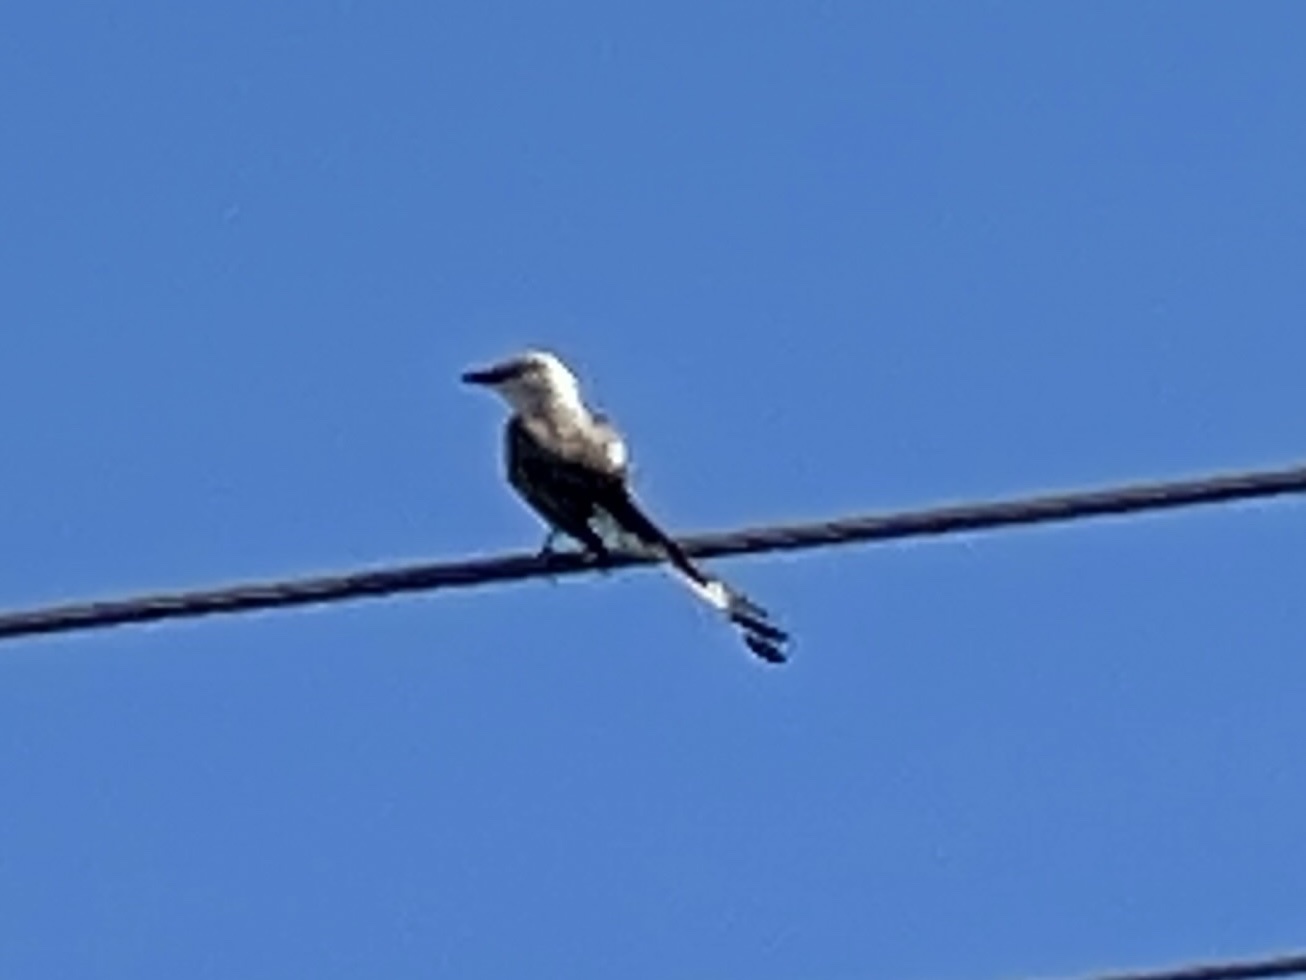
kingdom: Animalia
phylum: Chordata
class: Aves
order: Passeriformes
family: Tyrannidae
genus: Tyrannus
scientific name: Tyrannus forficatus
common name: Scissor-tailed flycatcher
